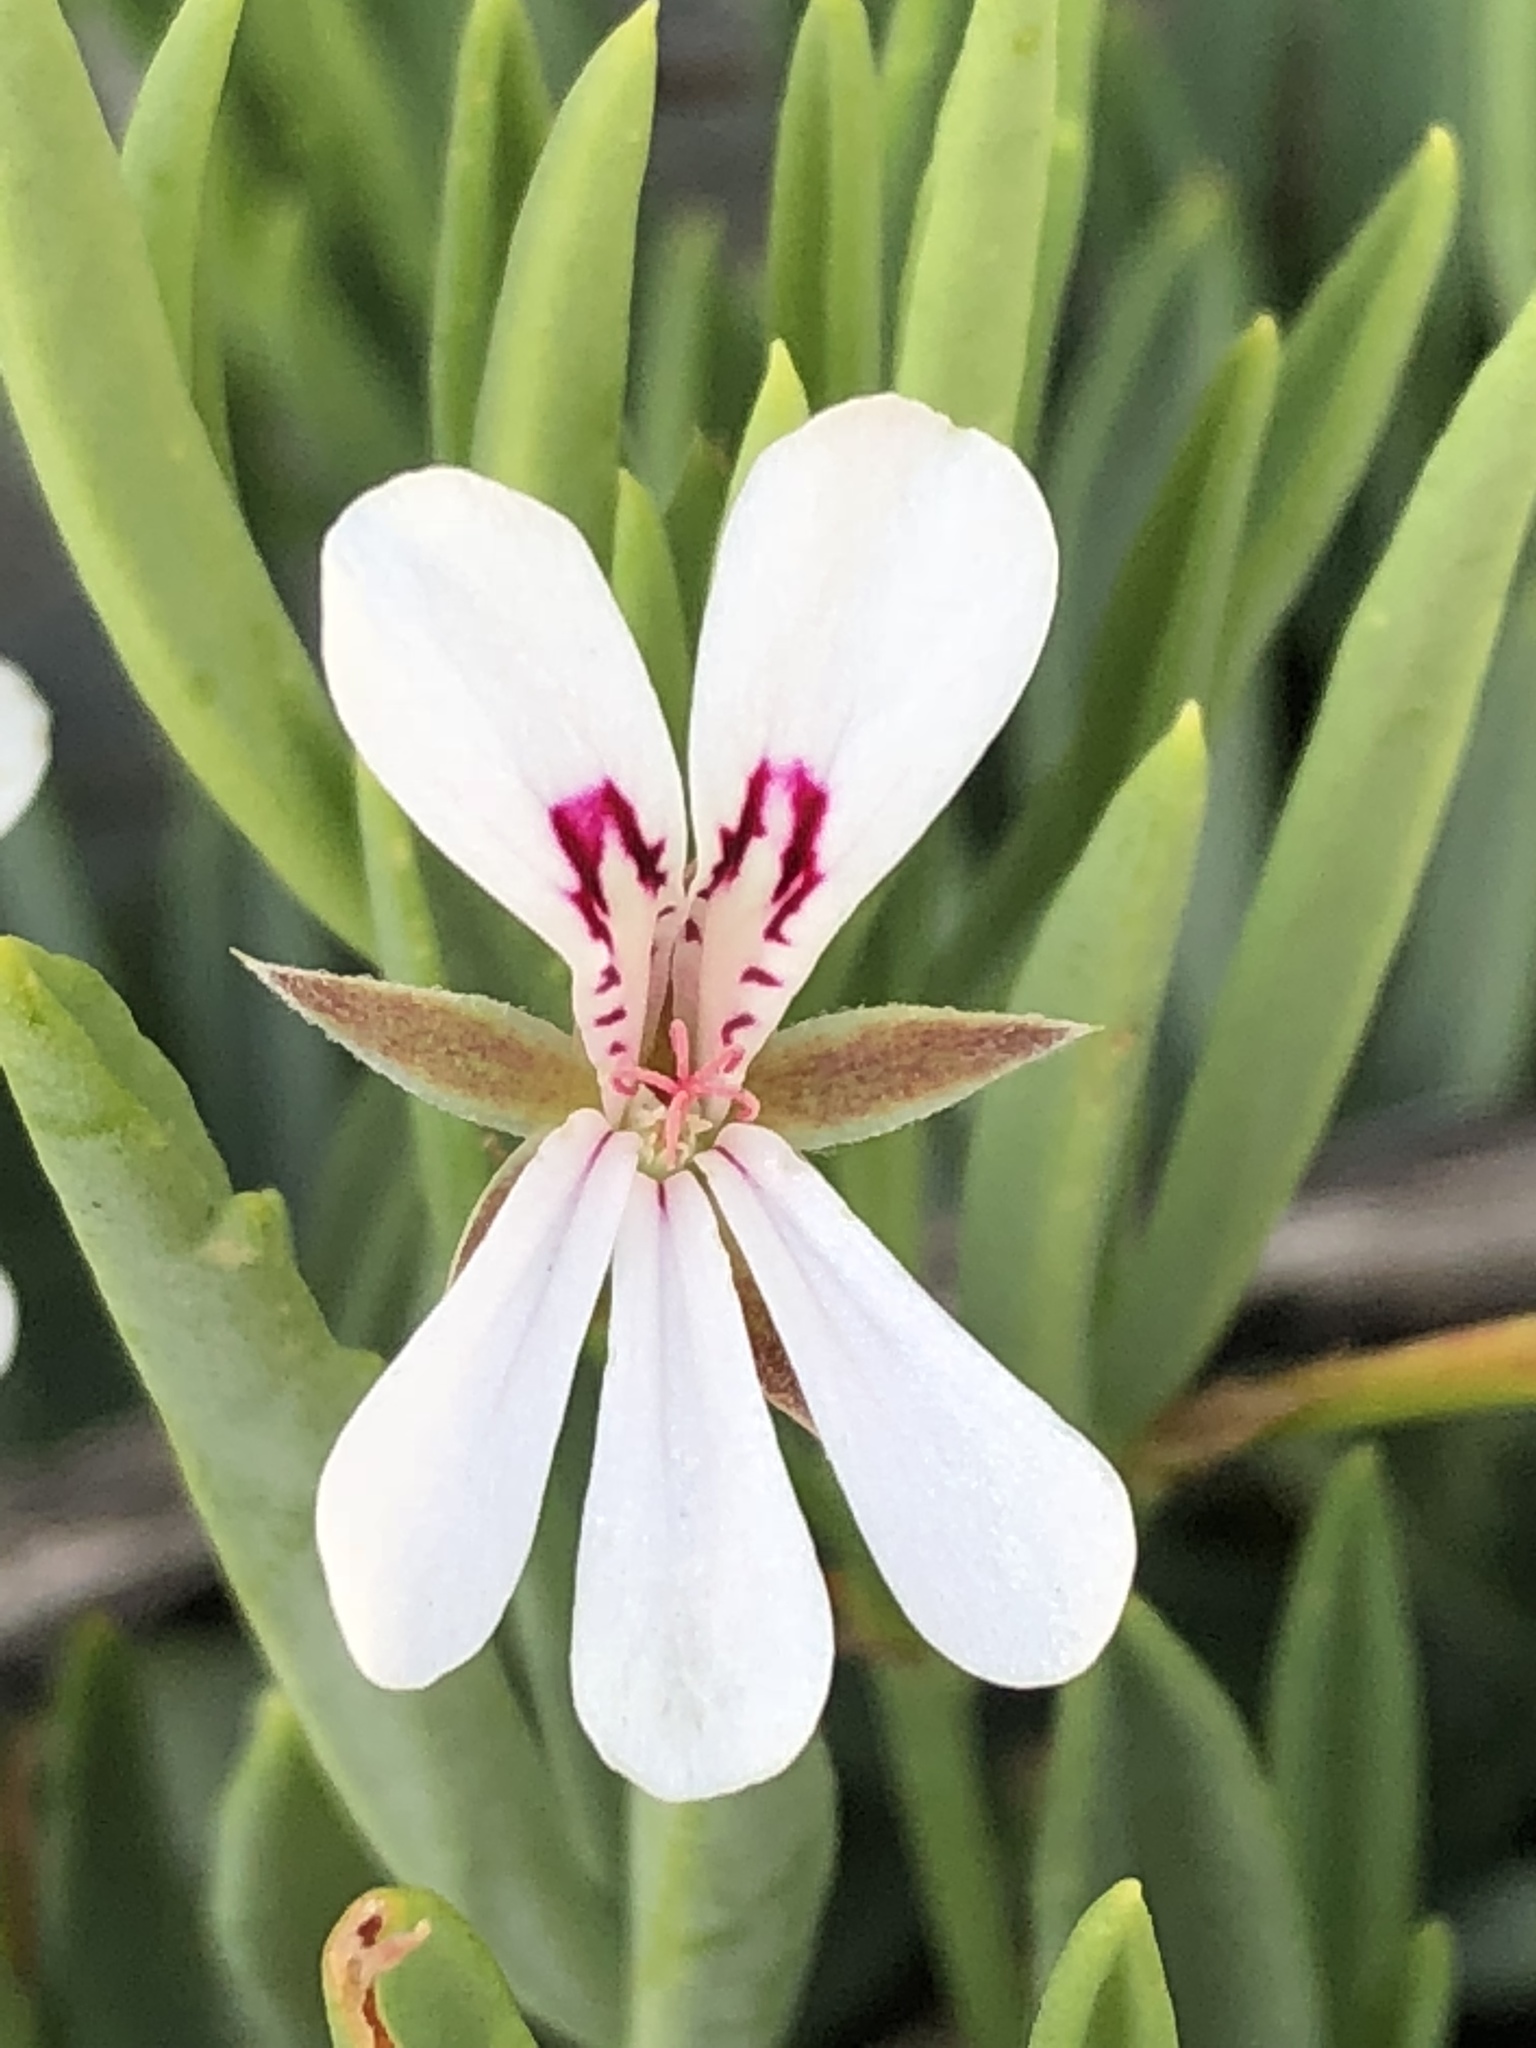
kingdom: Plantae
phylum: Tracheophyta
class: Magnoliopsida
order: Geraniales
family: Geraniaceae
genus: Pelargonium
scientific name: Pelargonium laevigatum
